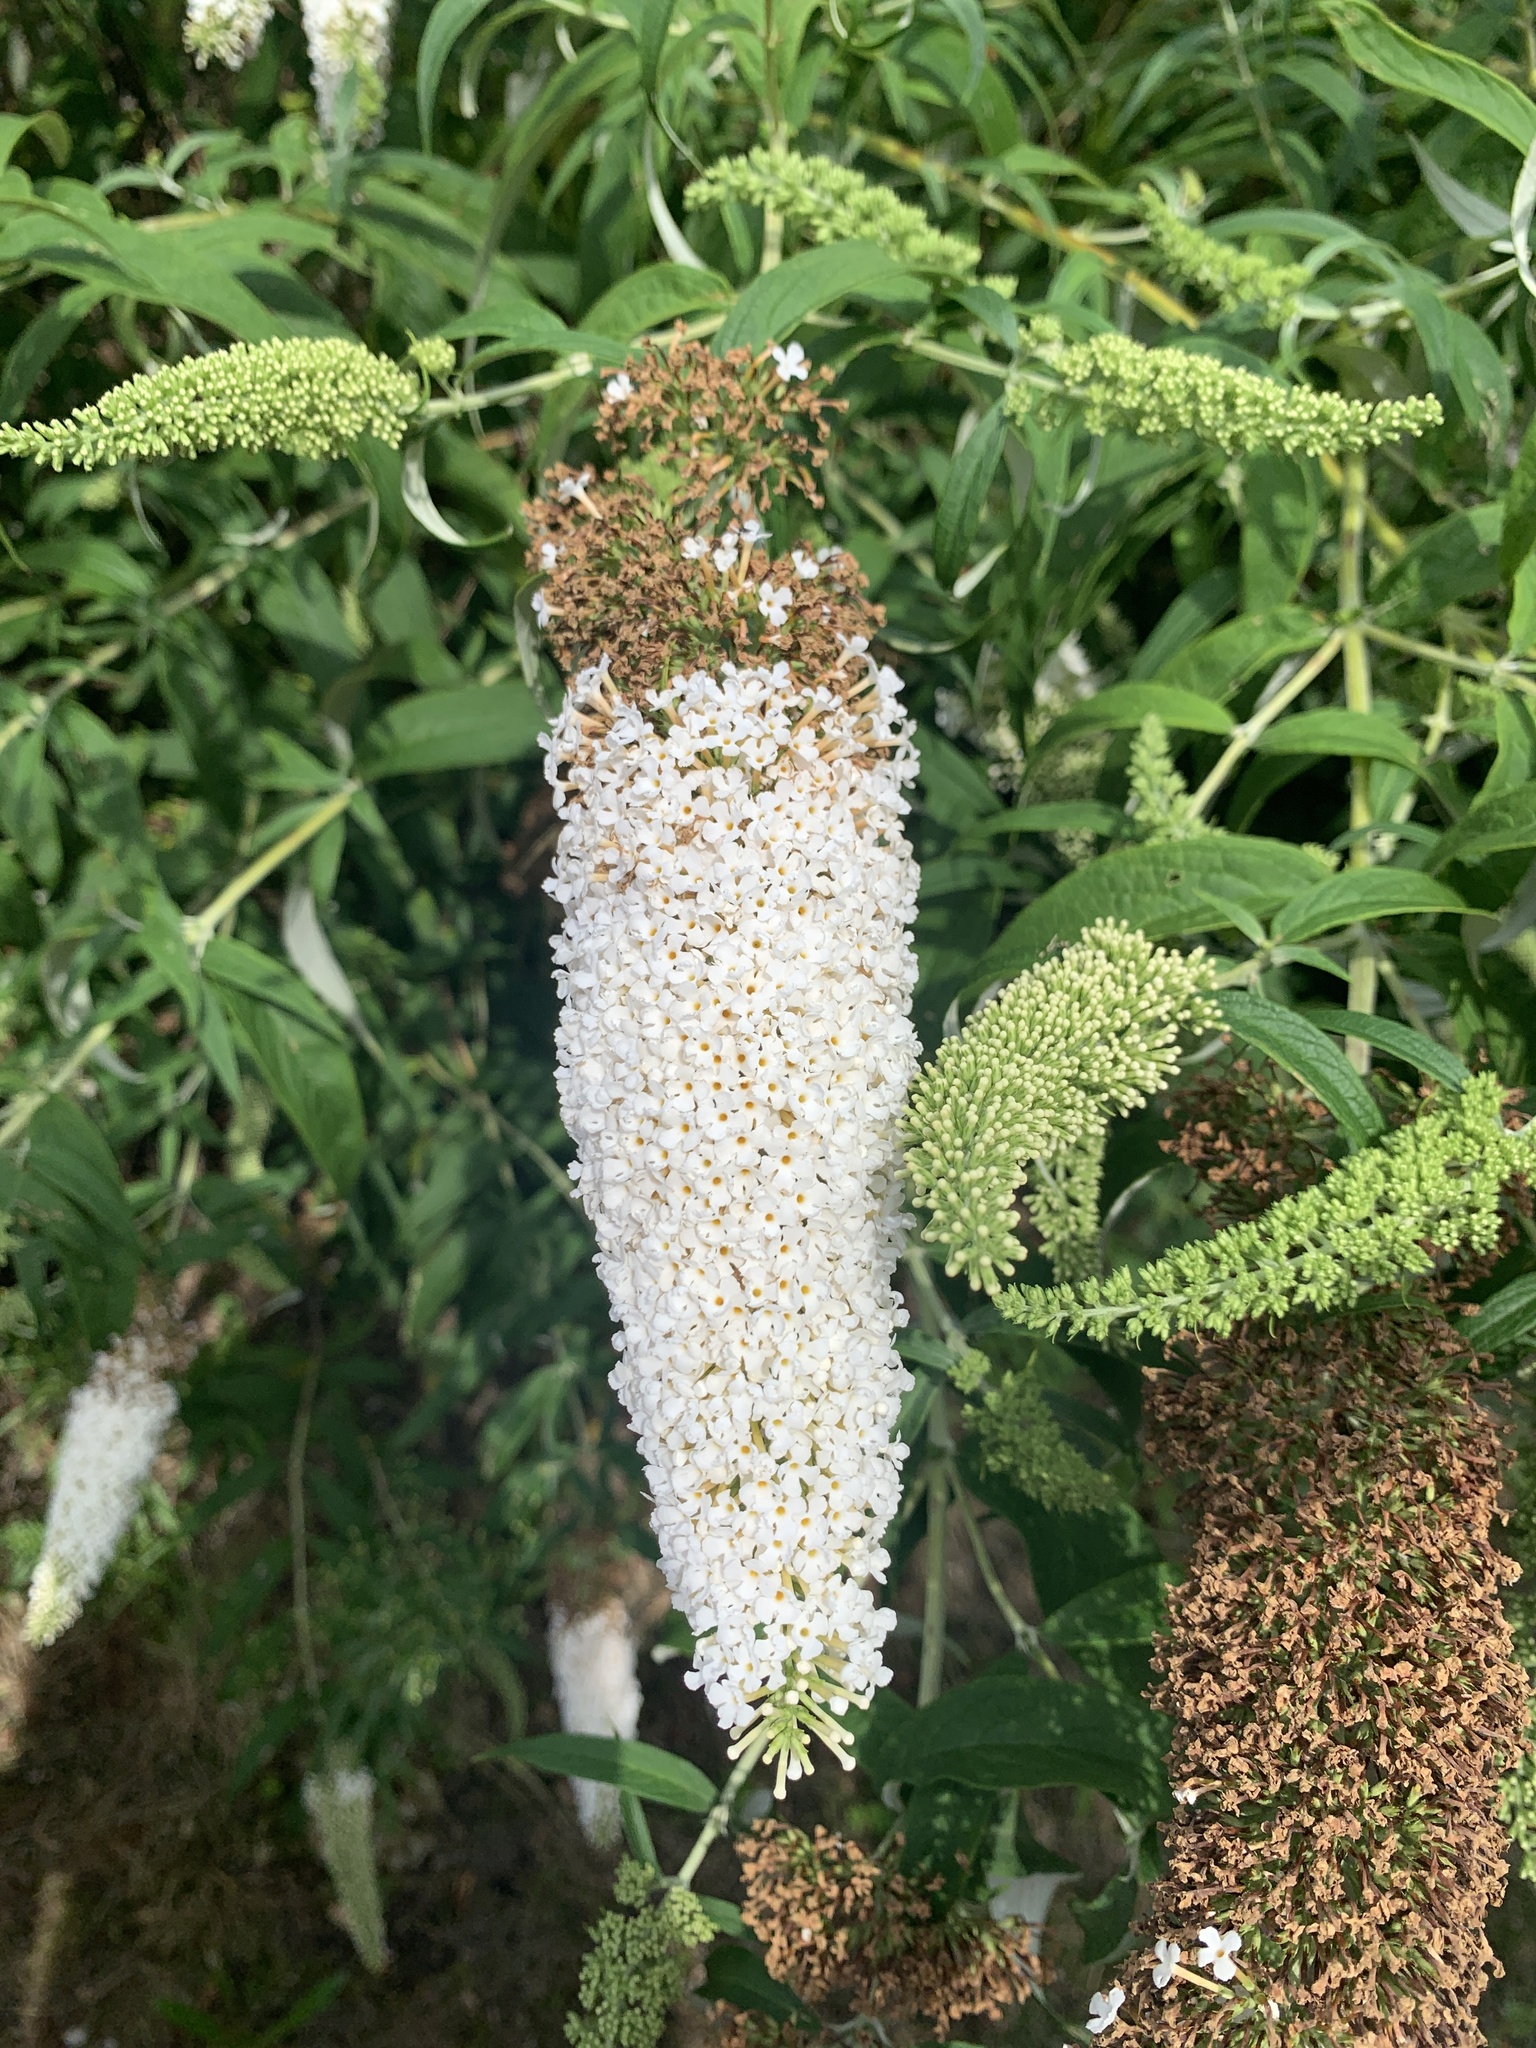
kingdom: Plantae
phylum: Tracheophyta
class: Magnoliopsida
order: Lamiales
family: Scrophulariaceae
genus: Buddleja
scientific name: Buddleja davidii
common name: Butterfly-bush
